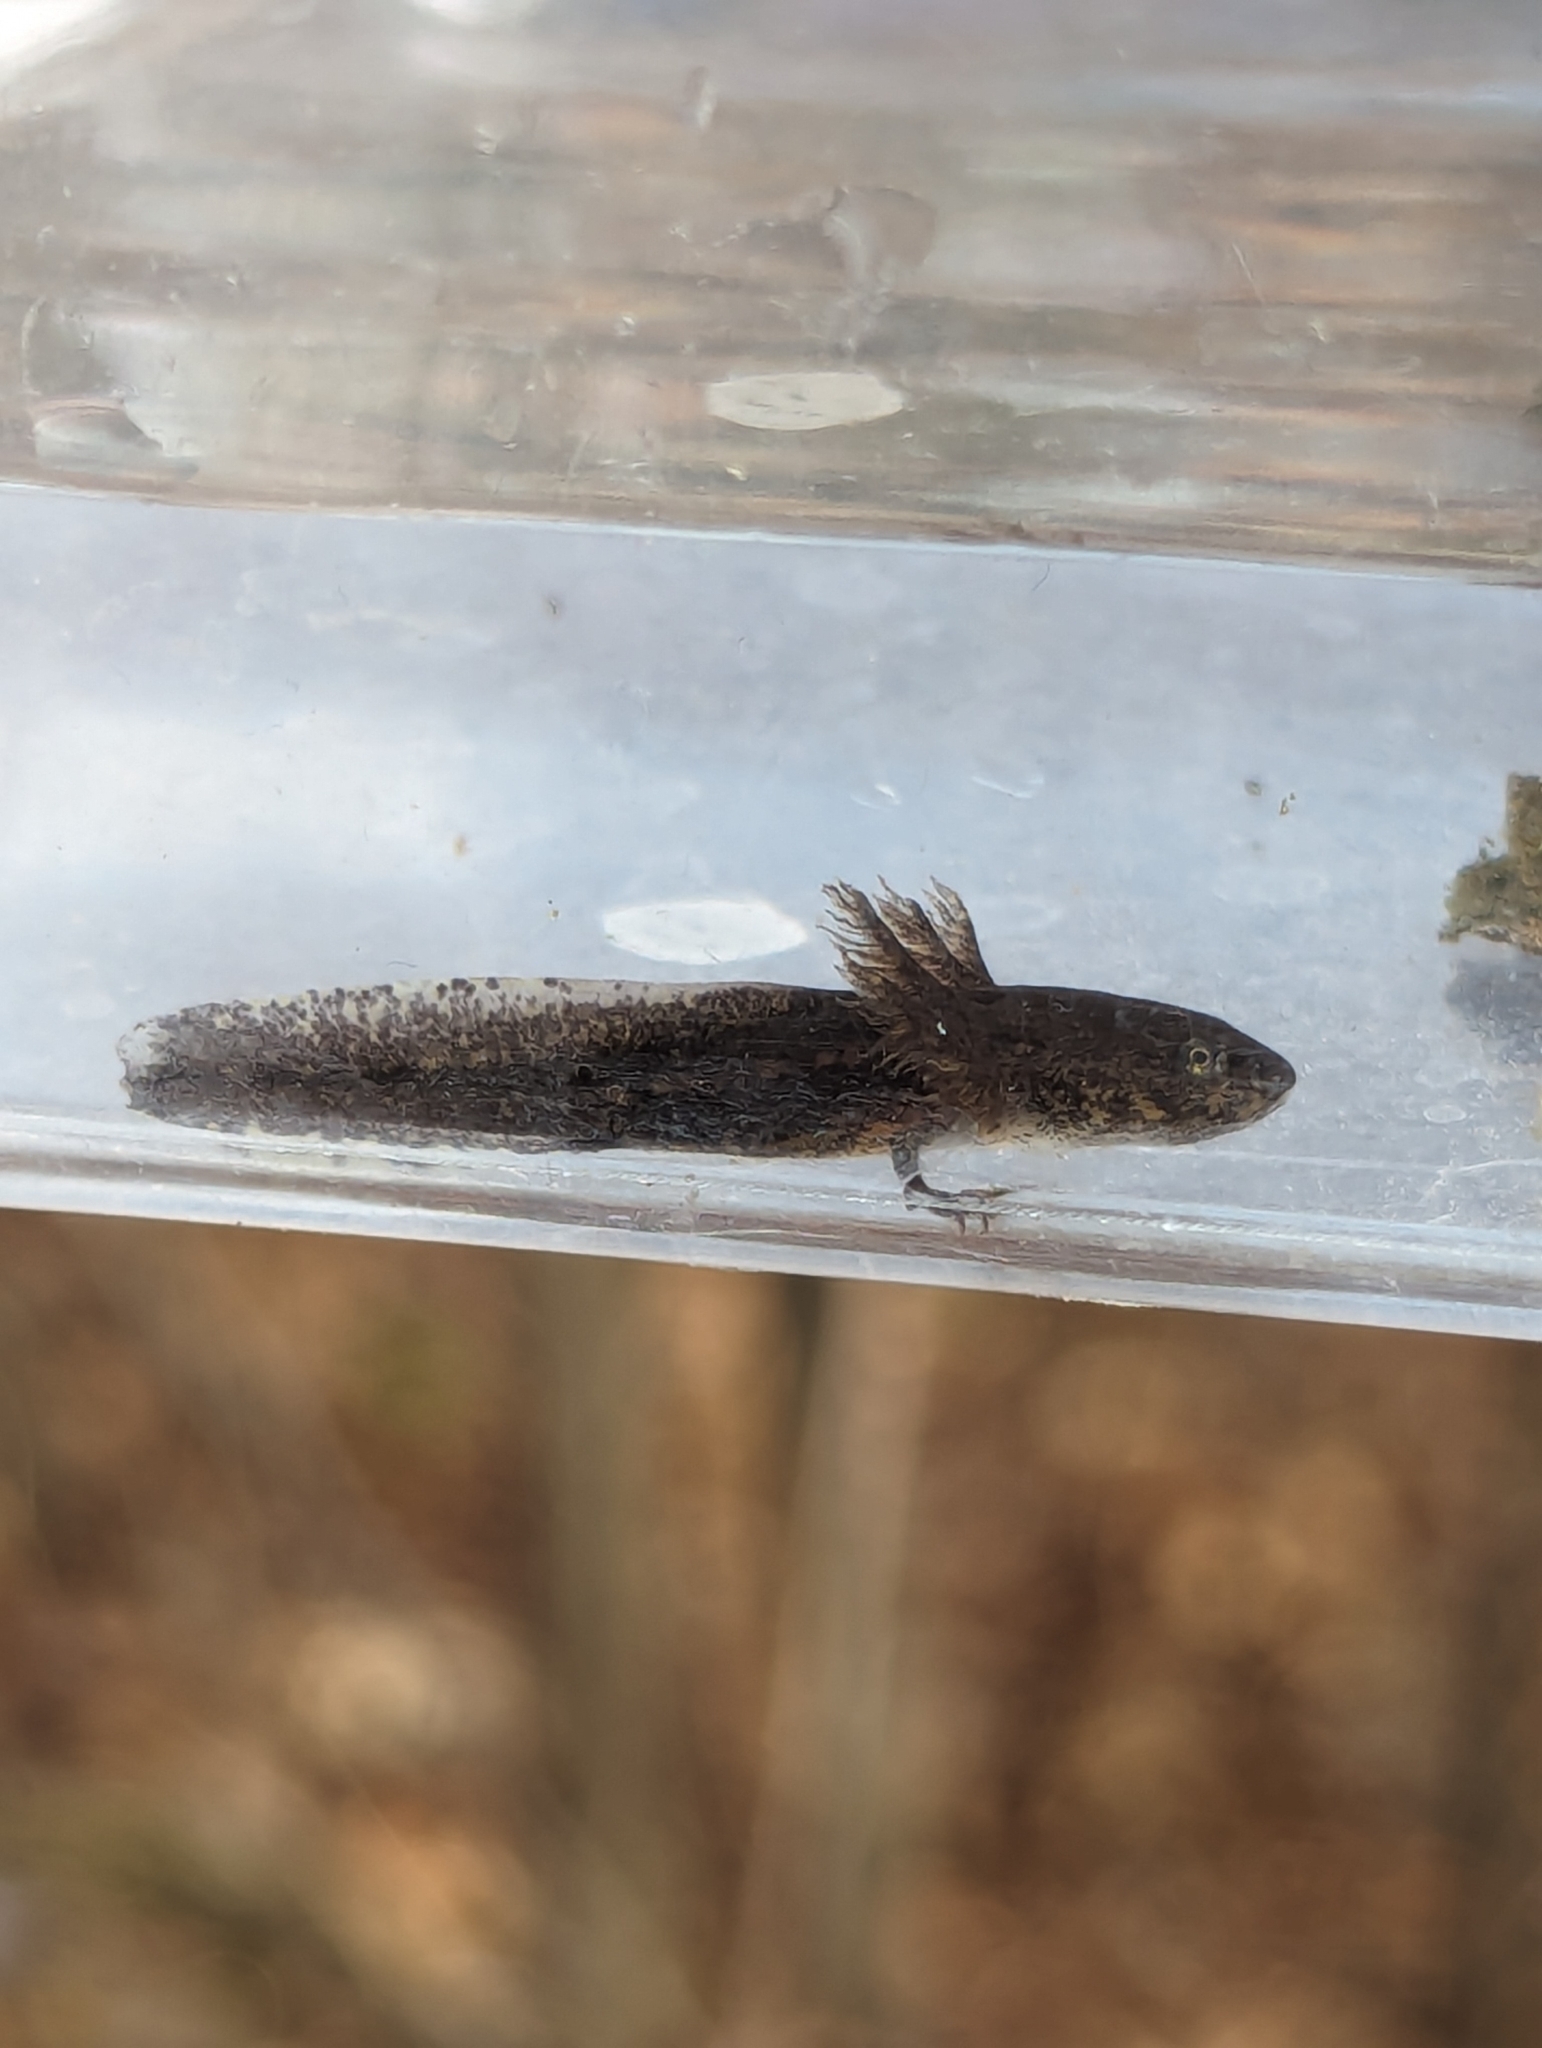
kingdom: Animalia
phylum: Chordata
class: Amphibia
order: Caudata
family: Ambystomatidae
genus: Ambystoma
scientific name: Ambystoma opacum
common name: Marbled salamander
